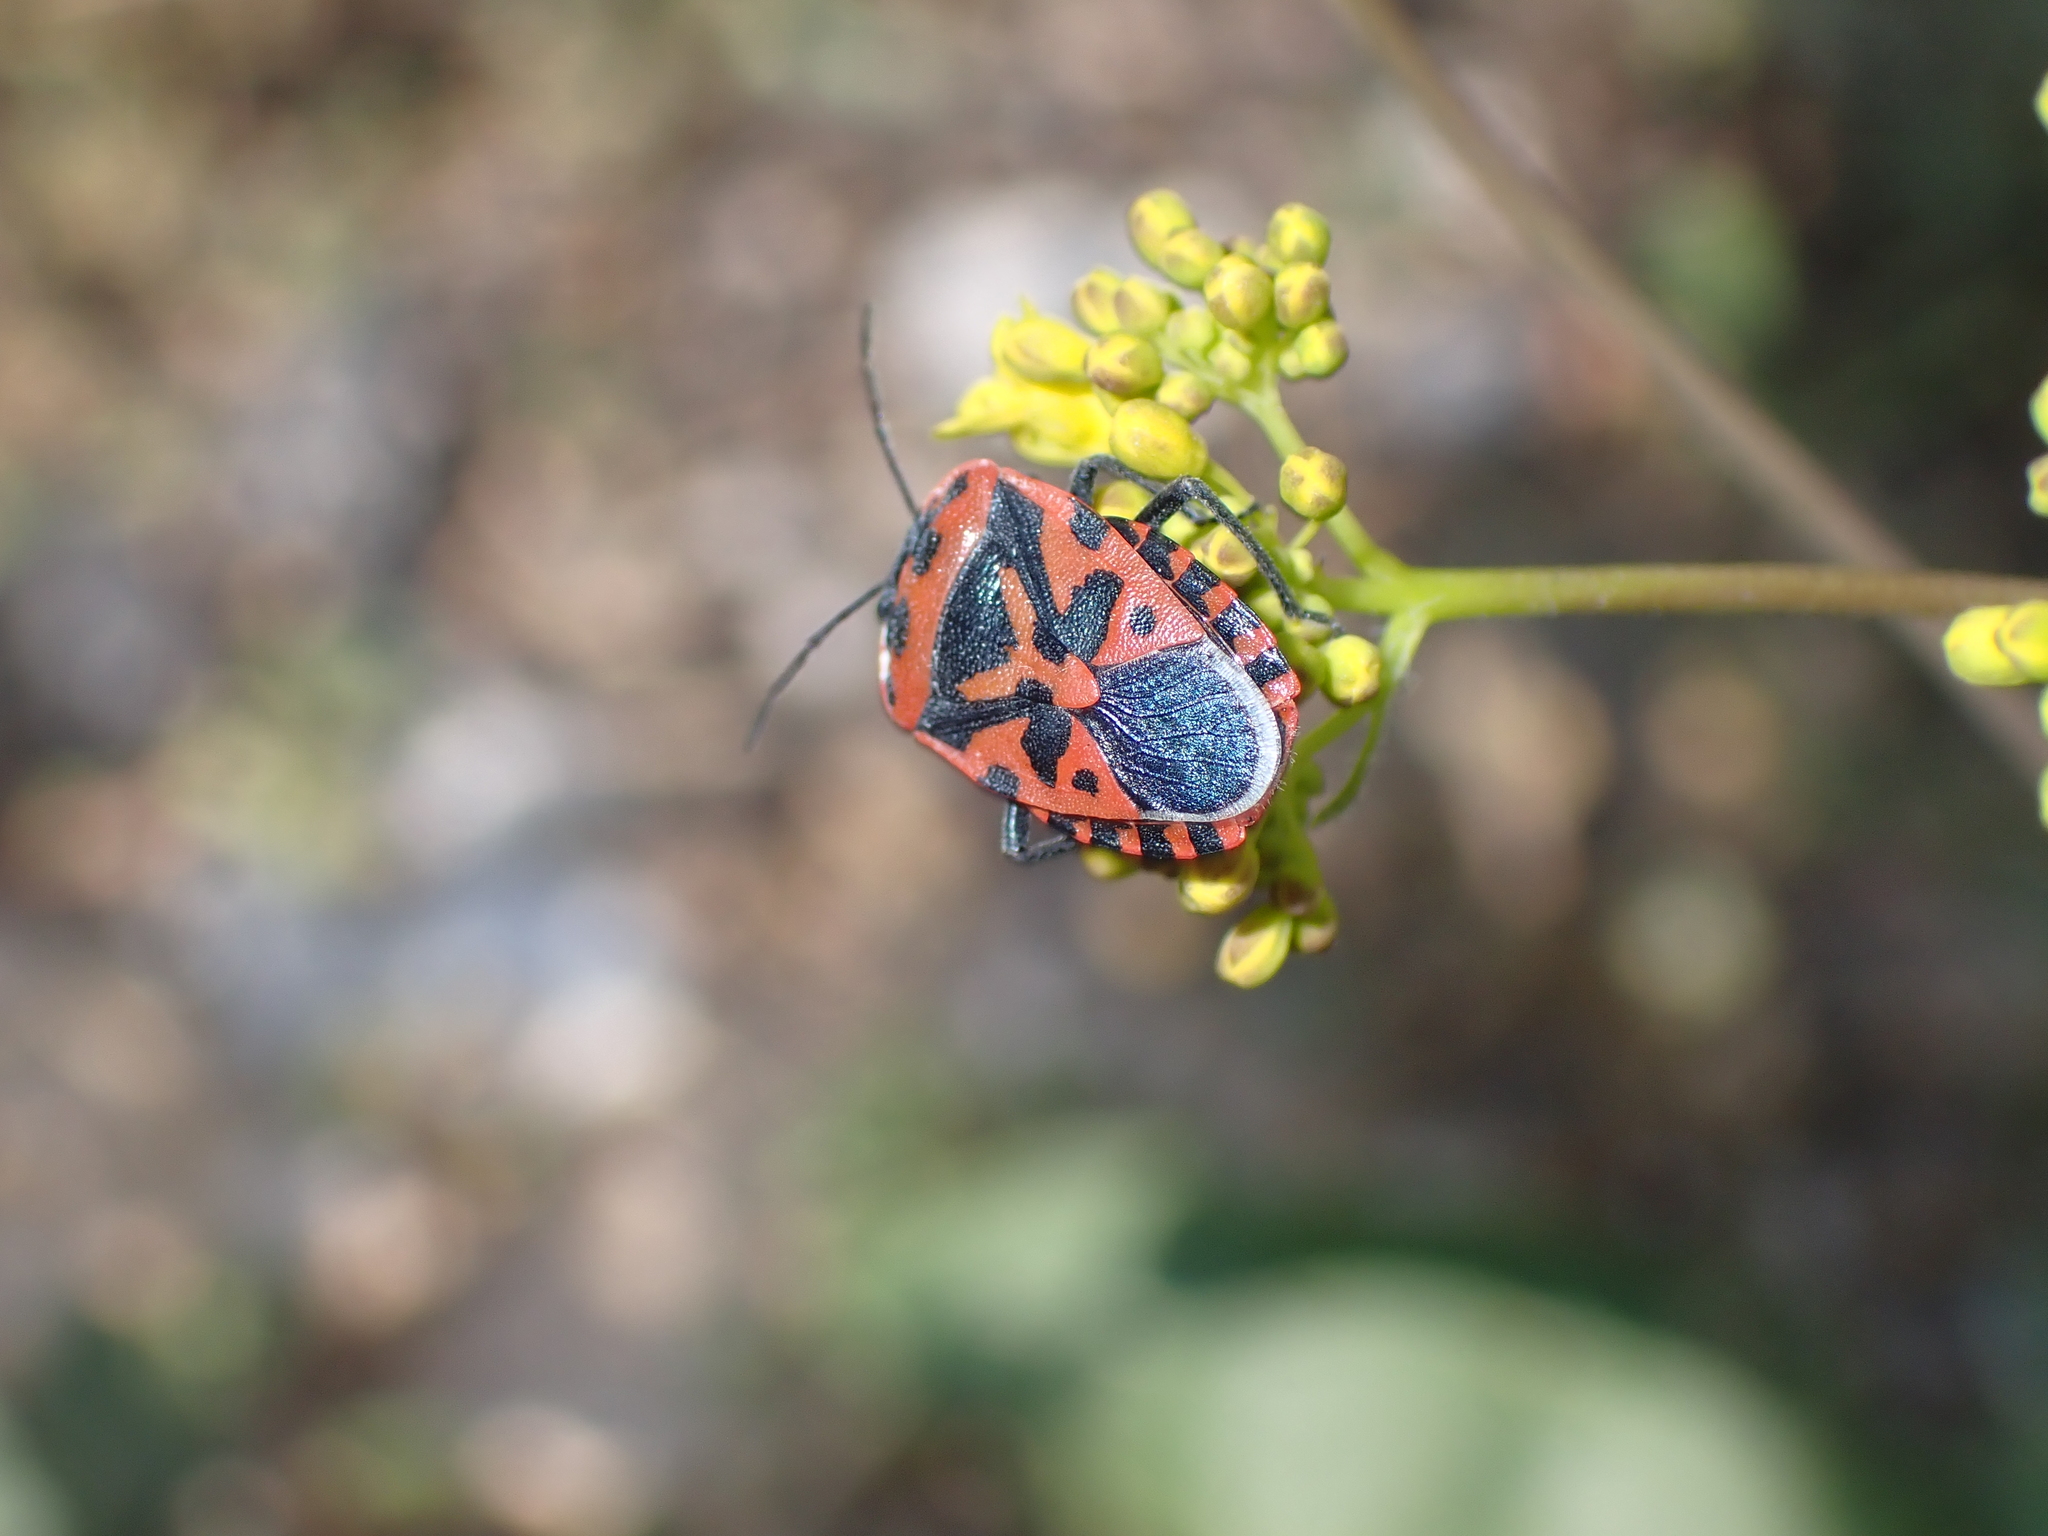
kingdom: Animalia
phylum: Arthropoda
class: Insecta
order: Hemiptera
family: Pentatomidae
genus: Eurydema
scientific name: Eurydema ventralis
